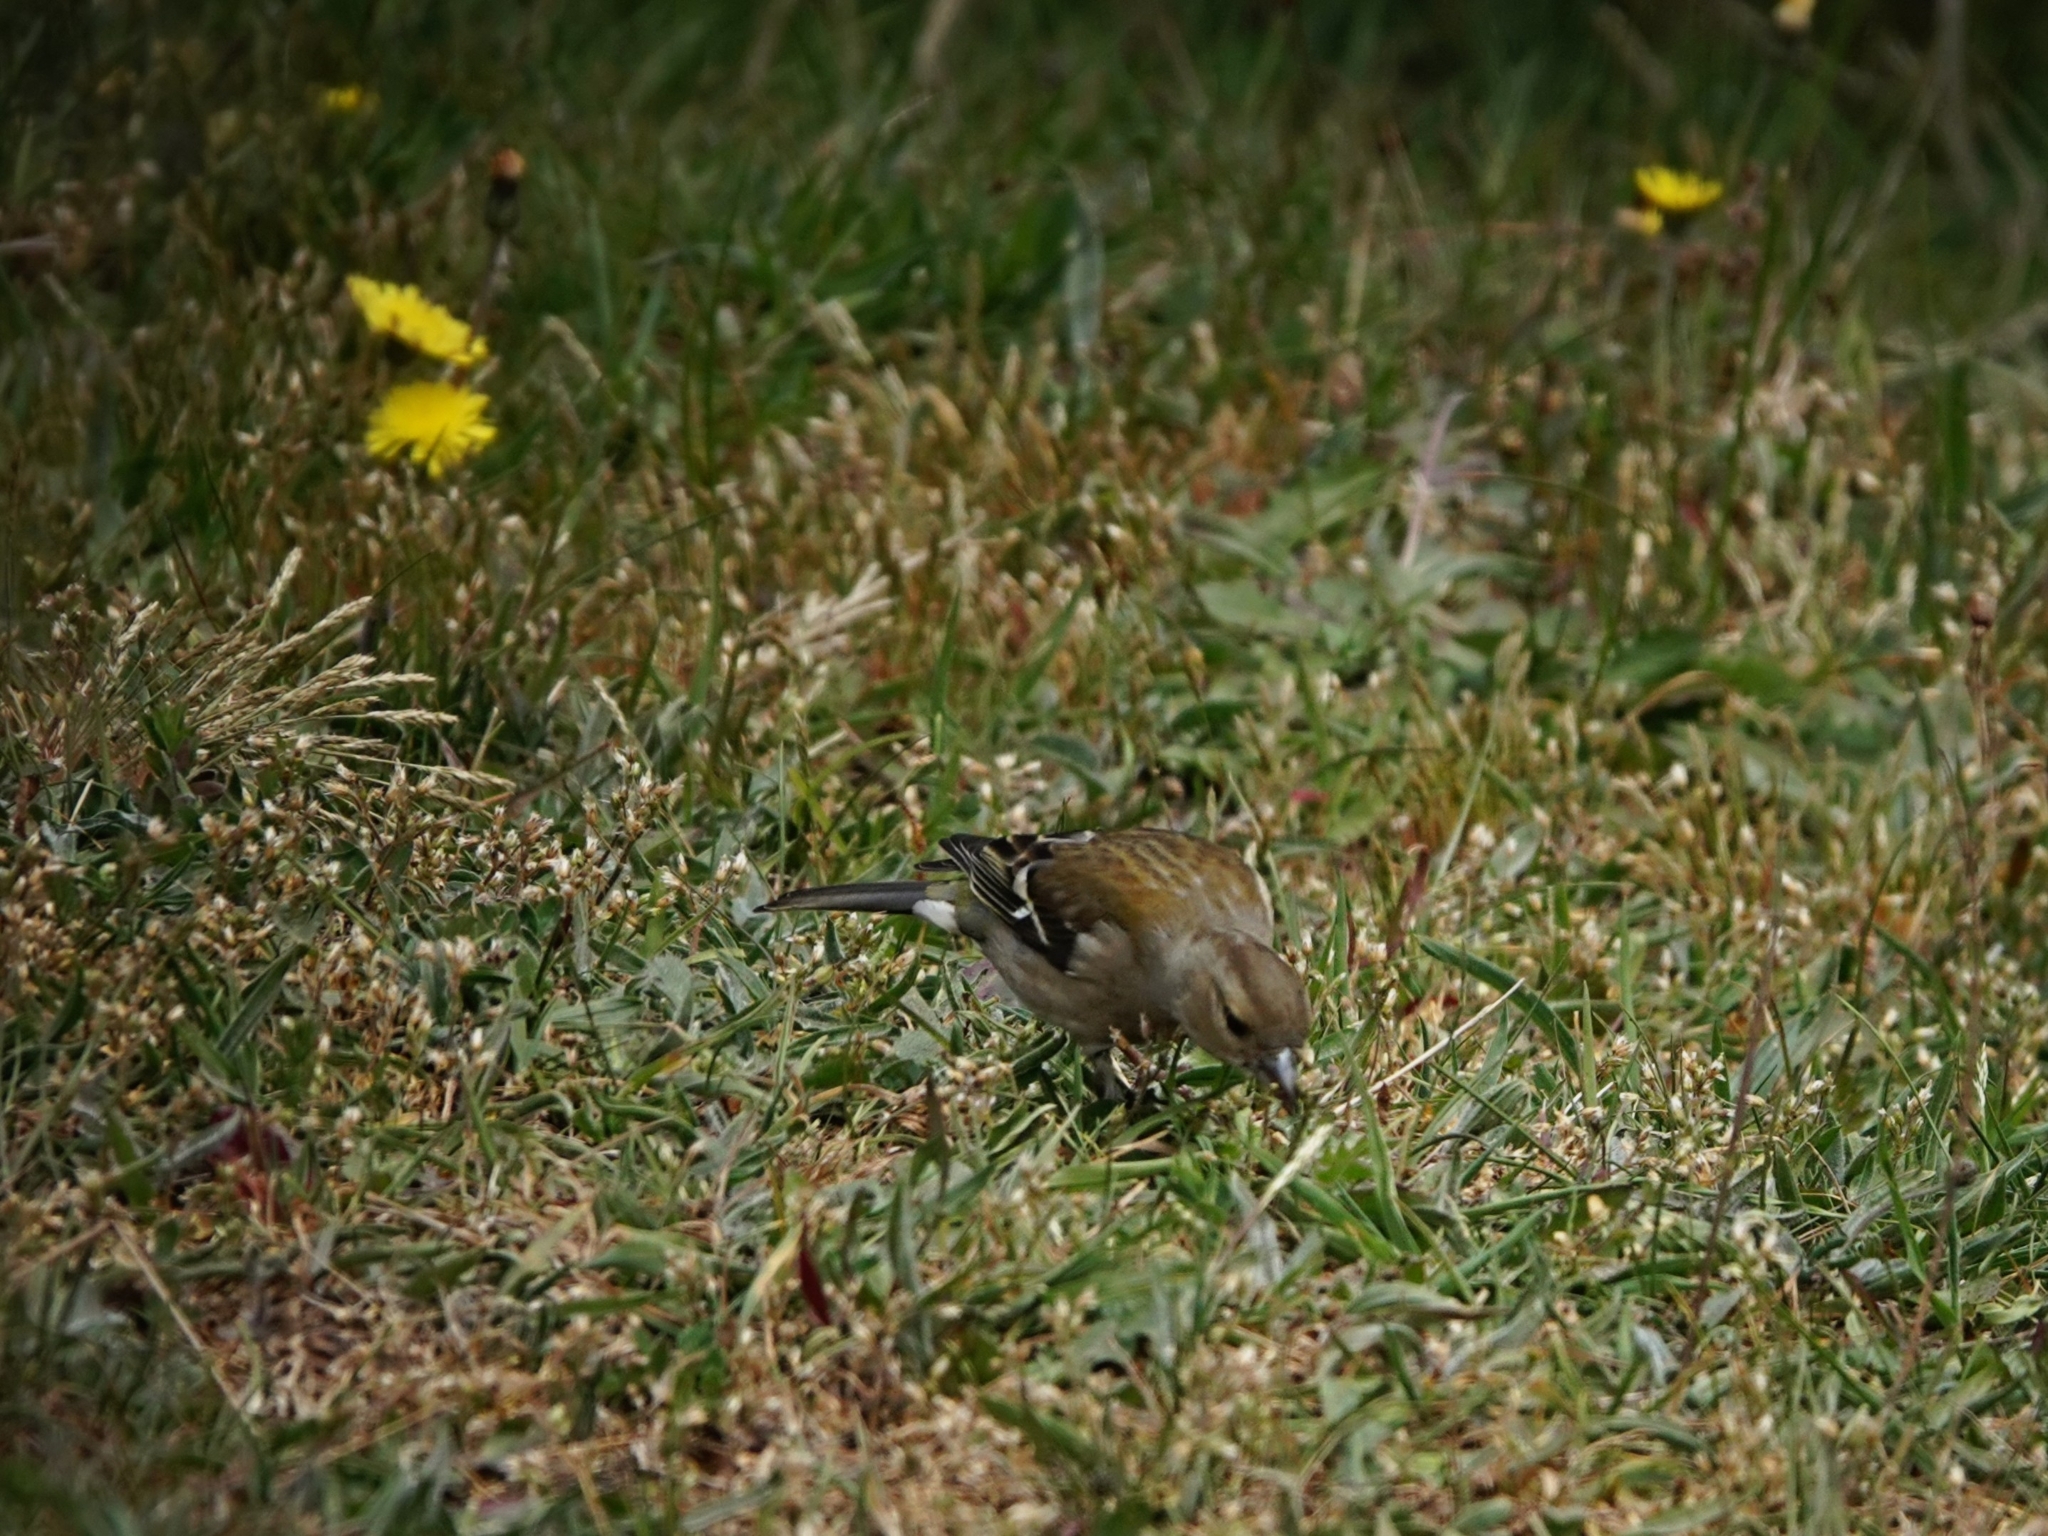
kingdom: Animalia
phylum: Chordata
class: Aves
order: Passeriformes
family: Fringillidae
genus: Fringilla
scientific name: Fringilla coelebs
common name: Common chaffinch
